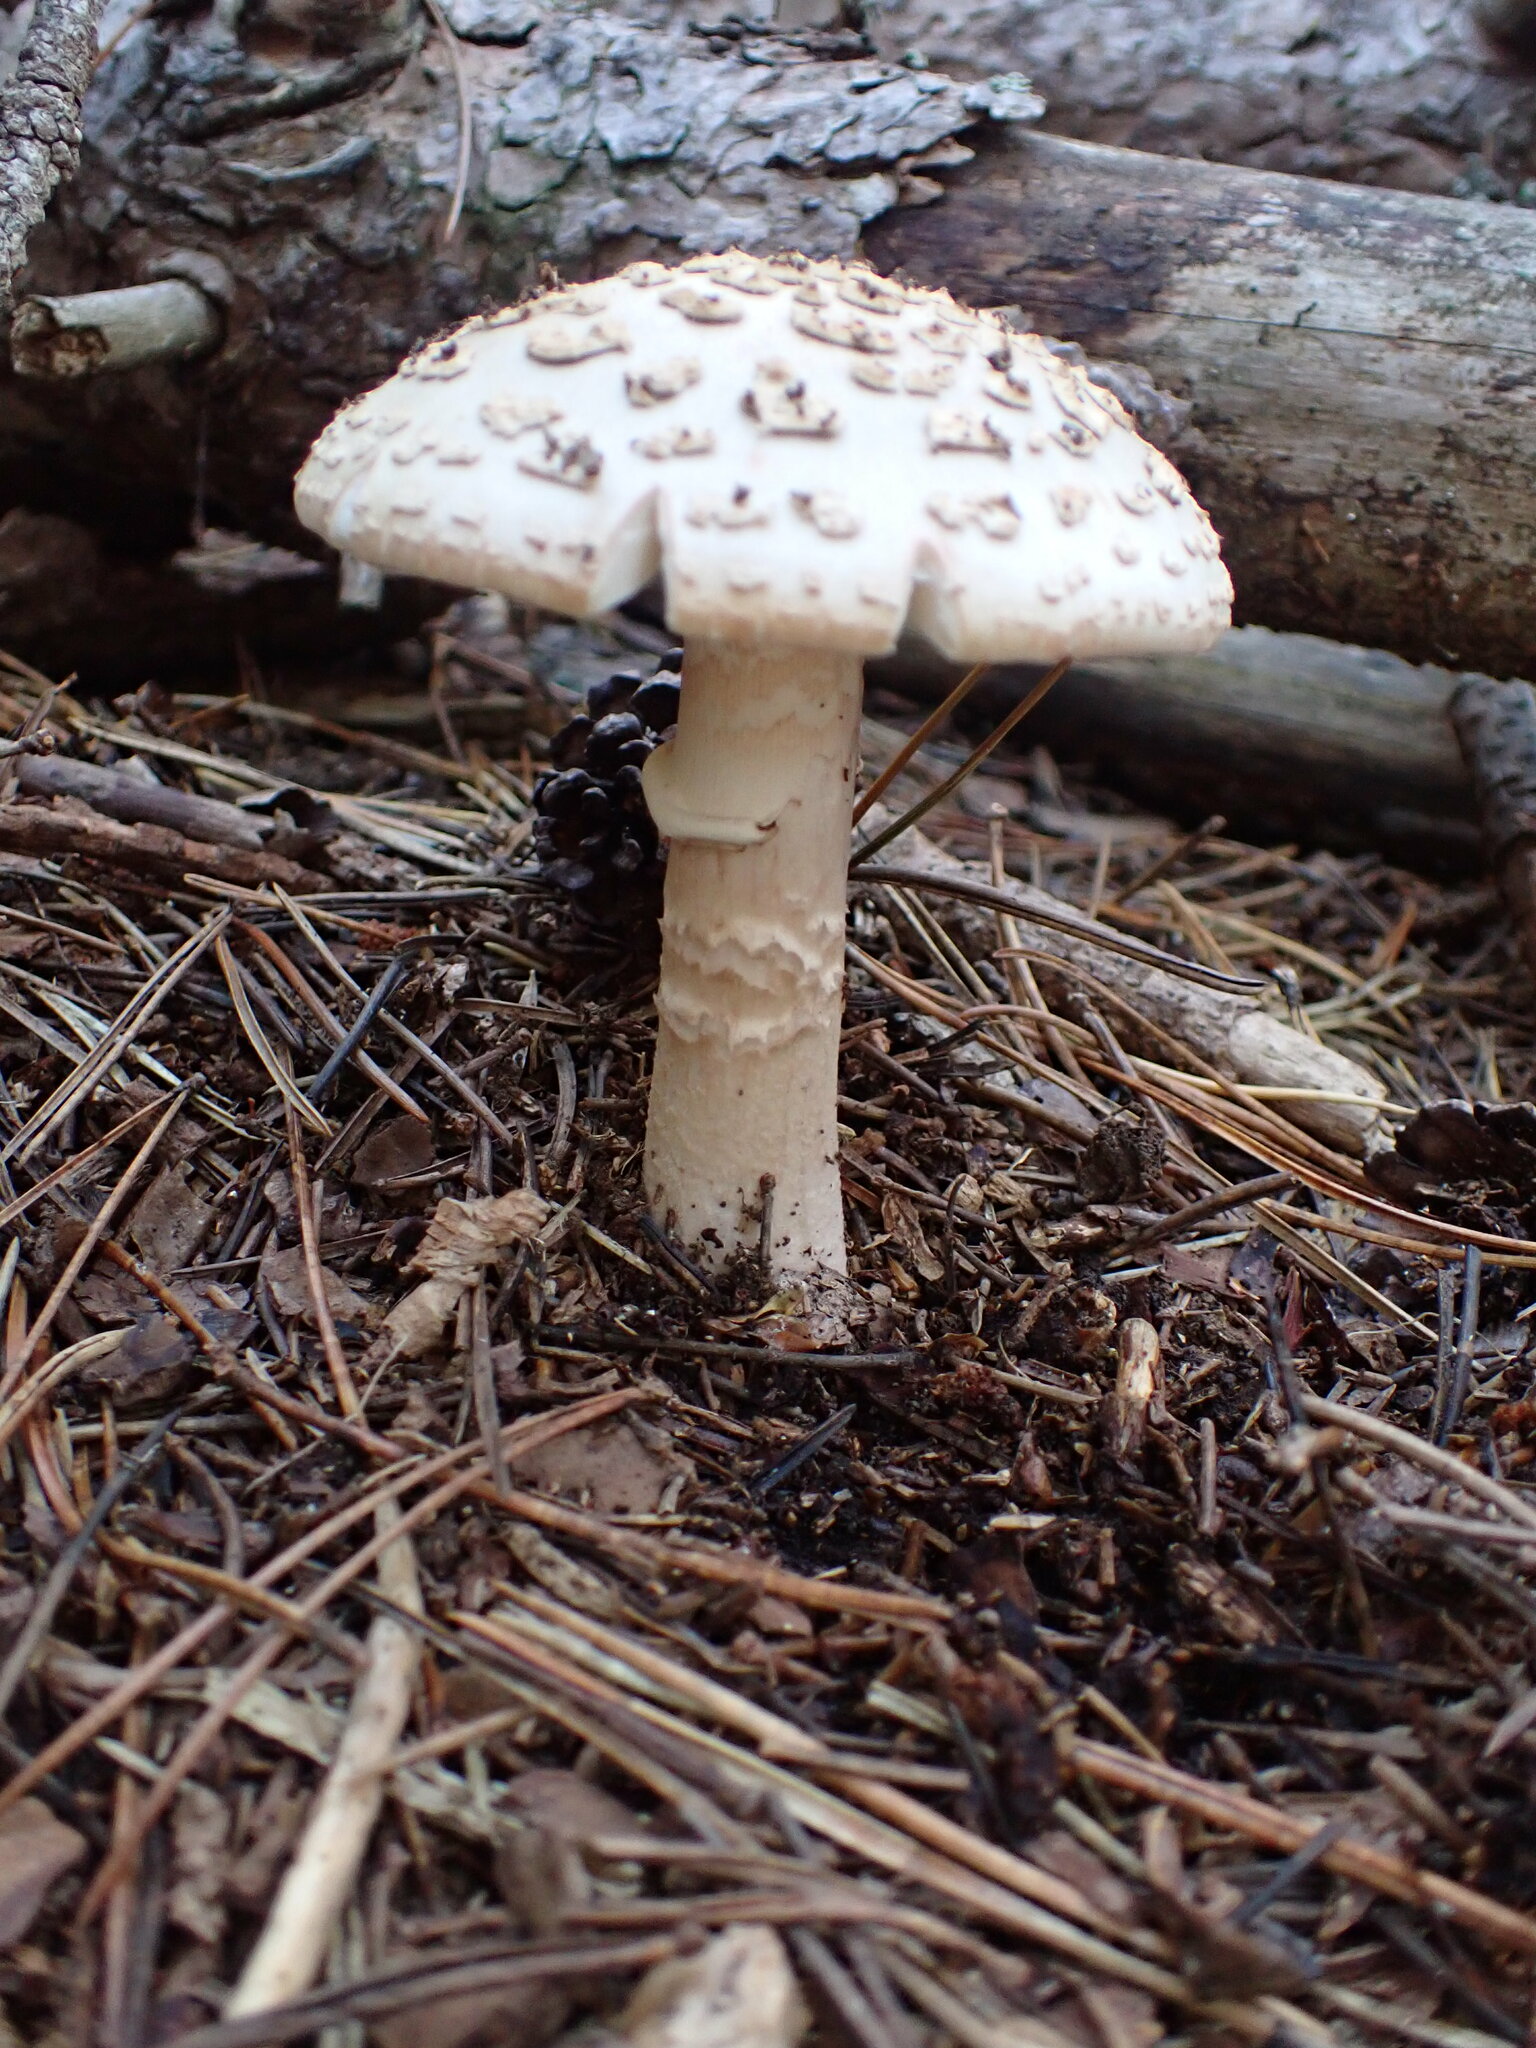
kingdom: Fungi
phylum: Basidiomycota
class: Agaricomycetes
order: Agaricales
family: Amanitaceae
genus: Amanita
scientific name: Amanita rubescens
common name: Blusher
